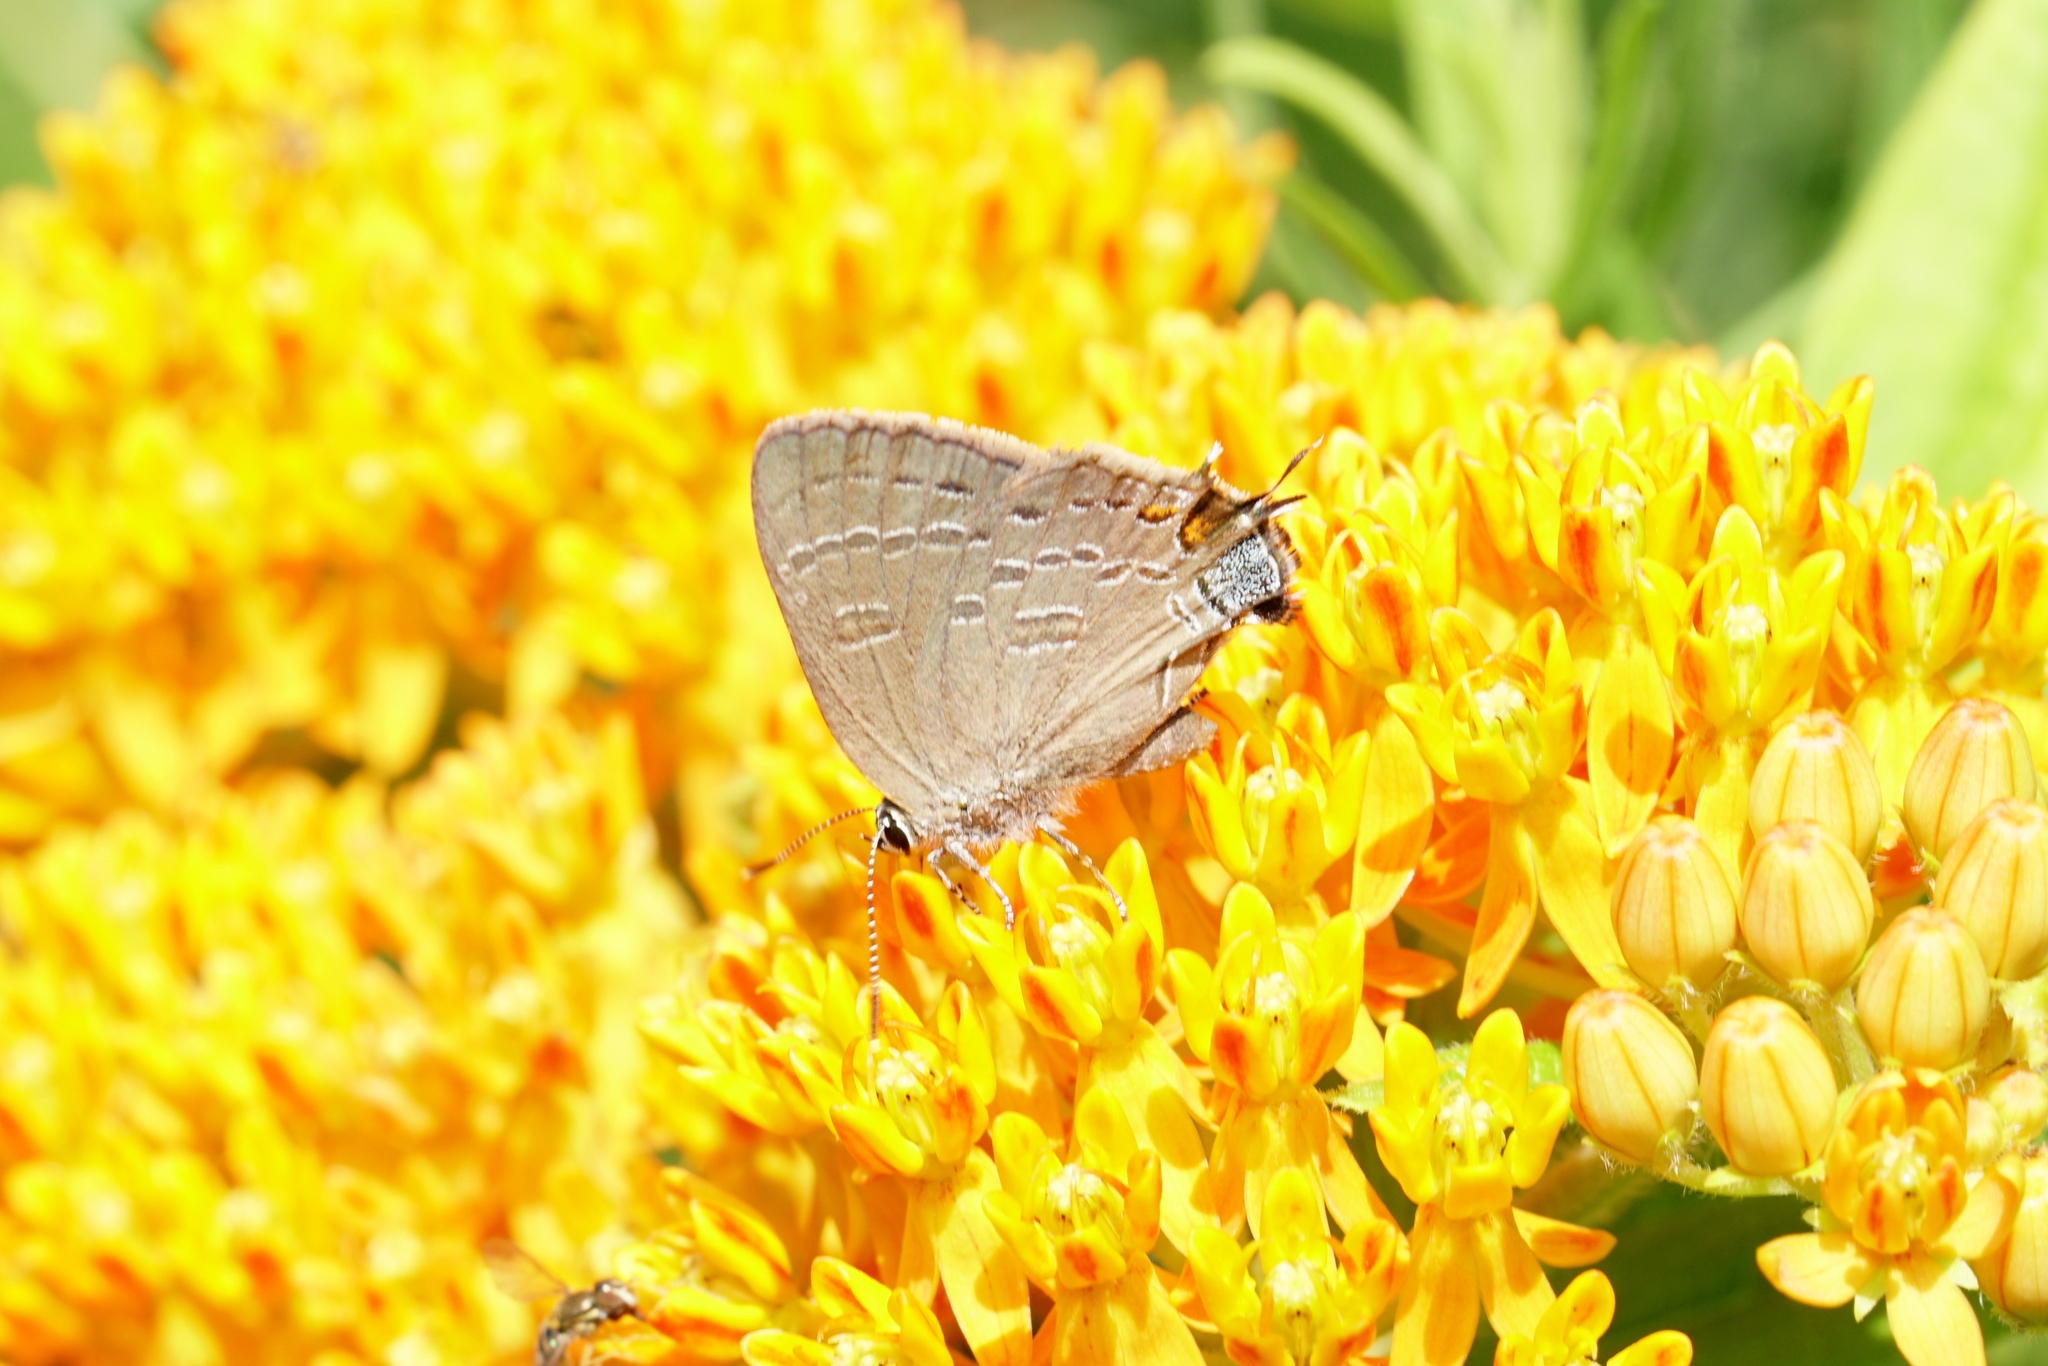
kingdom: Animalia
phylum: Arthropoda
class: Insecta
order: Lepidoptera
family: Lycaenidae
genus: Satyrium
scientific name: Satyrium calanus
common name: Banded hairstreak
